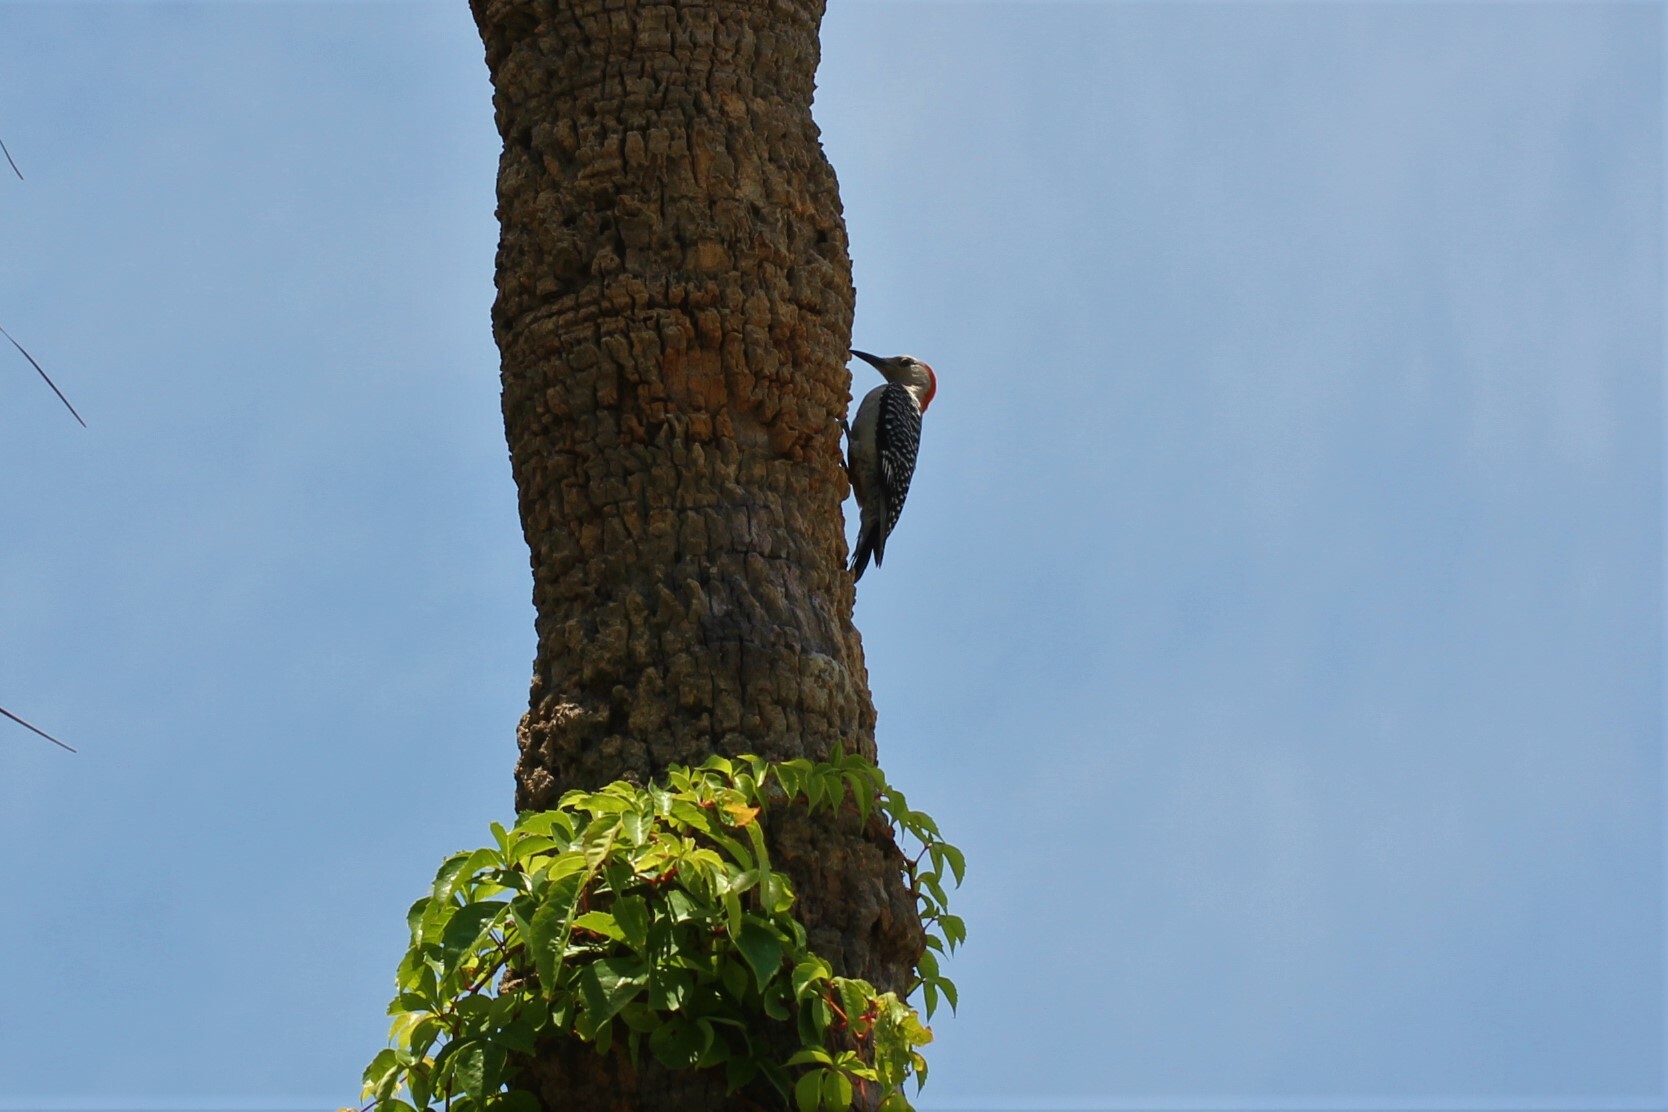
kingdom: Animalia
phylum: Chordata
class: Aves
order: Piciformes
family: Picidae
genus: Melanerpes
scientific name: Melanerpes carolinus
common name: Red-bellied woodpecker
